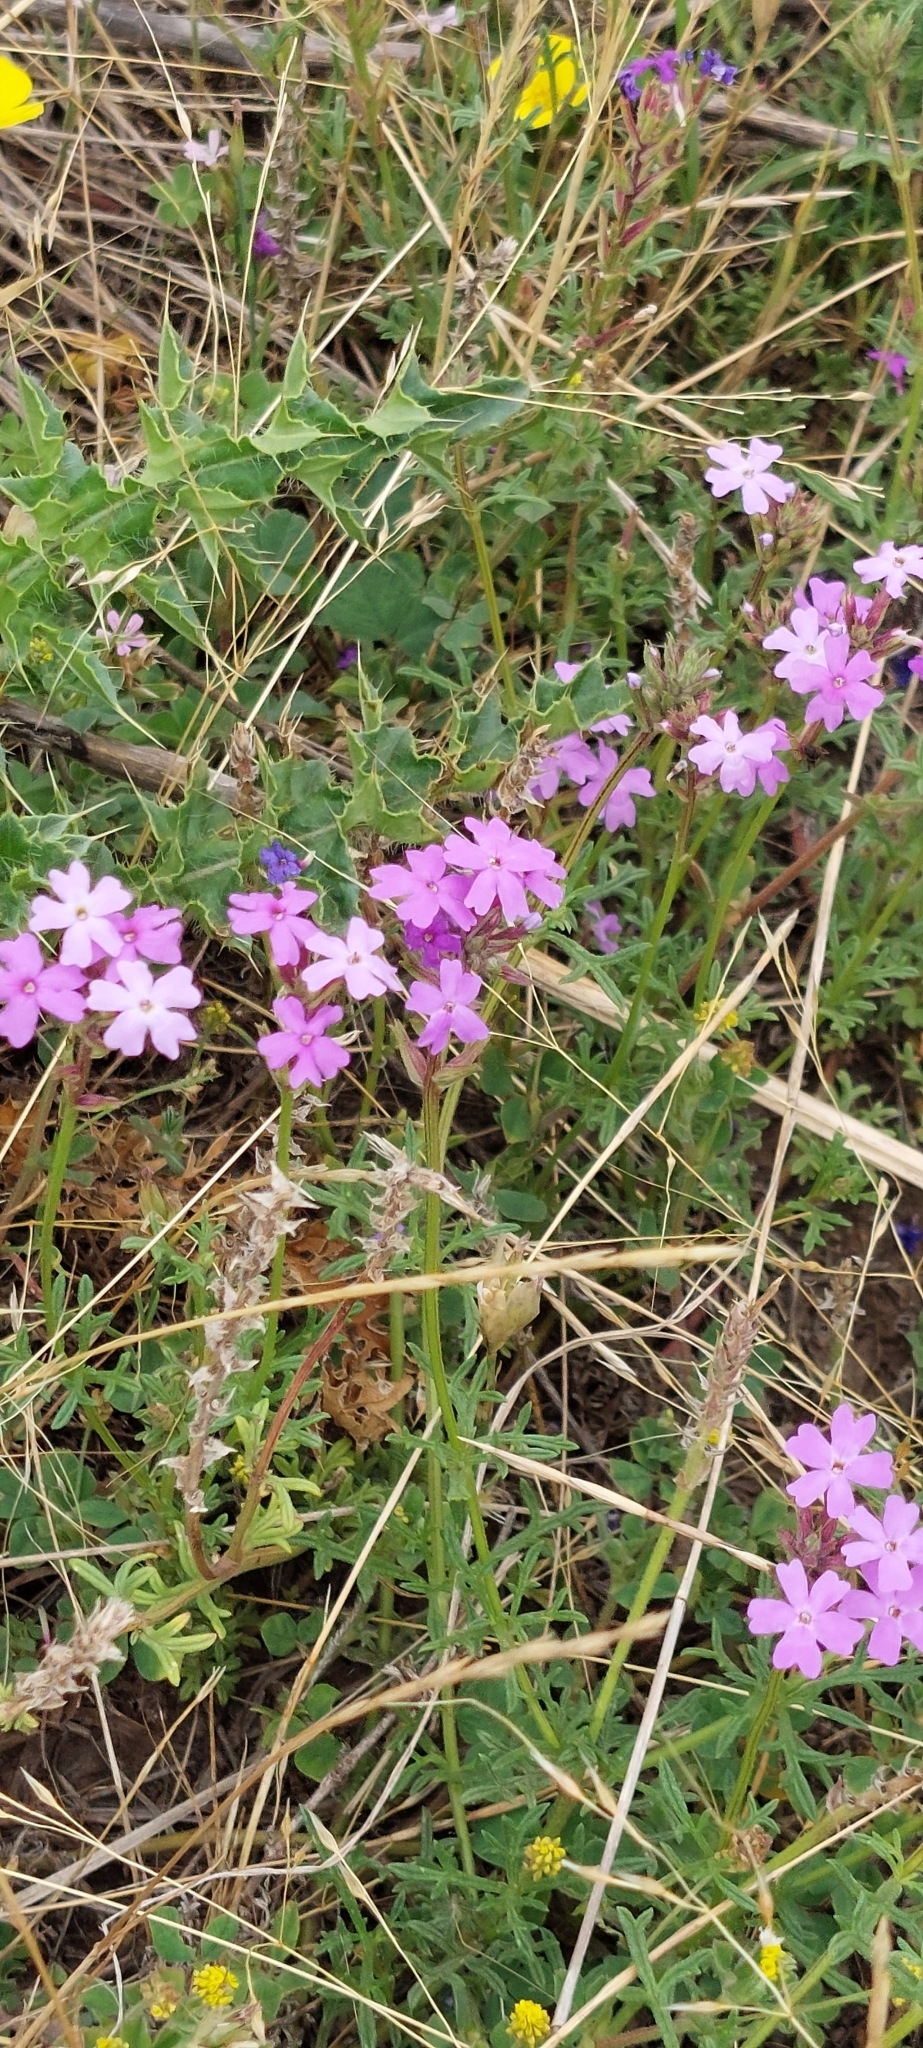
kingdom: Plantae
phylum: Tracheophyta
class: Magnoliopsida
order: Lamiales
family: Verbenaceae
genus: Verbena
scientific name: Verbena tenera
